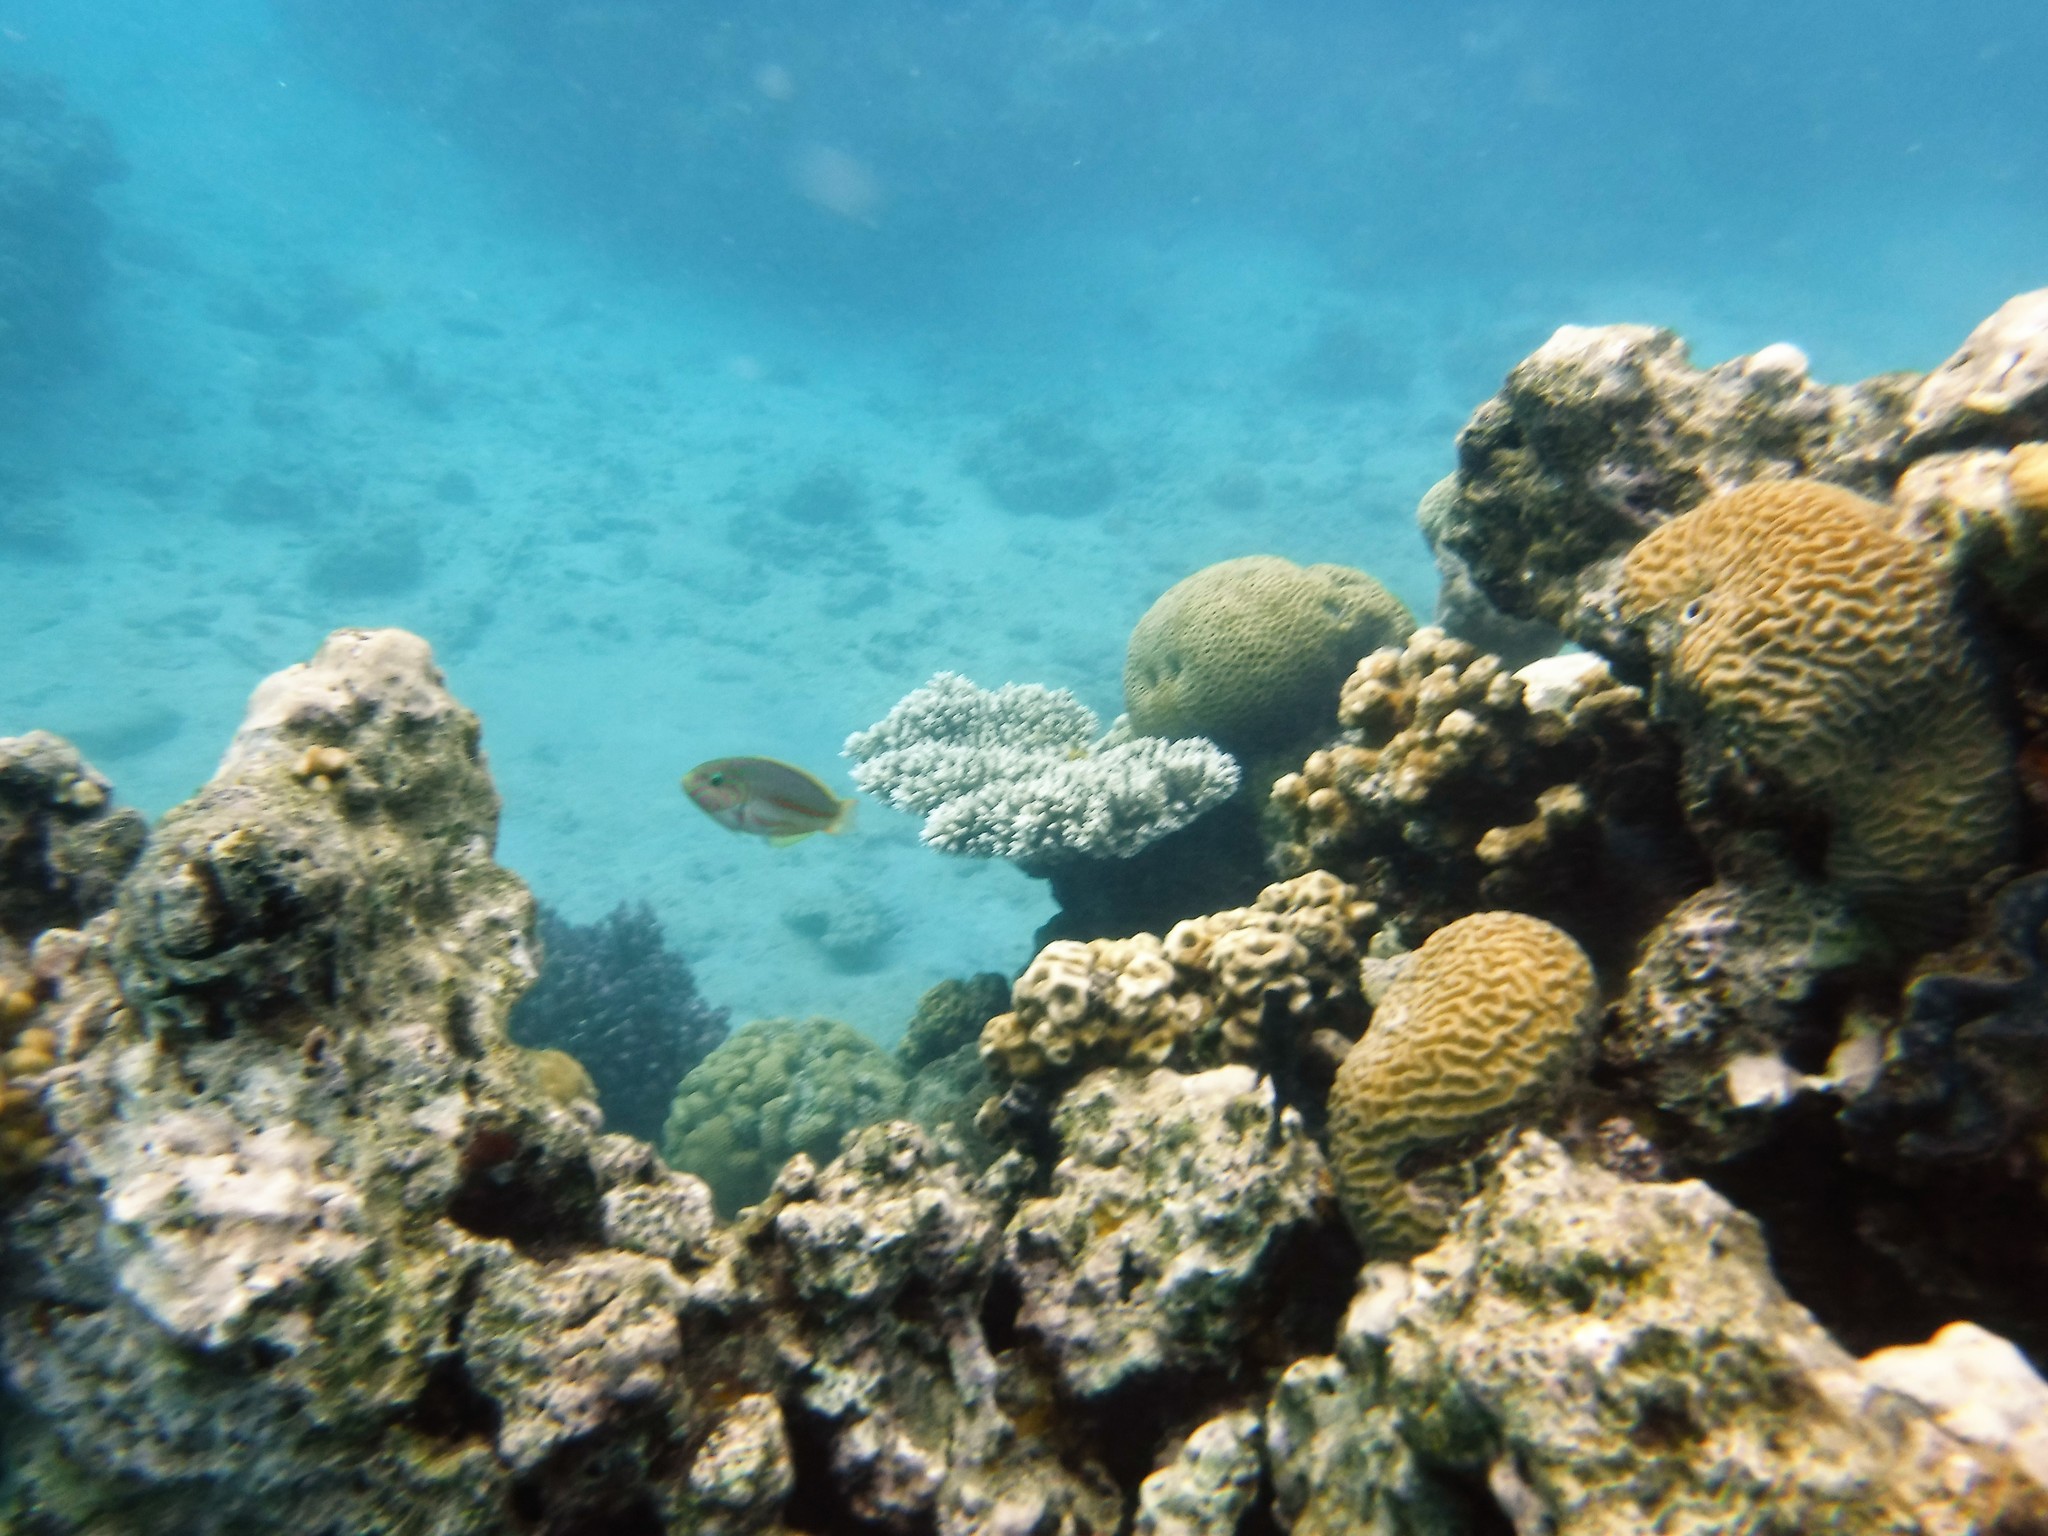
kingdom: Animalia
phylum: Chordata
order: Perciformes
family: Labridae
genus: Thalassoma
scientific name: Thalassoma rueppellii
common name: Klunzinger's wrasse
